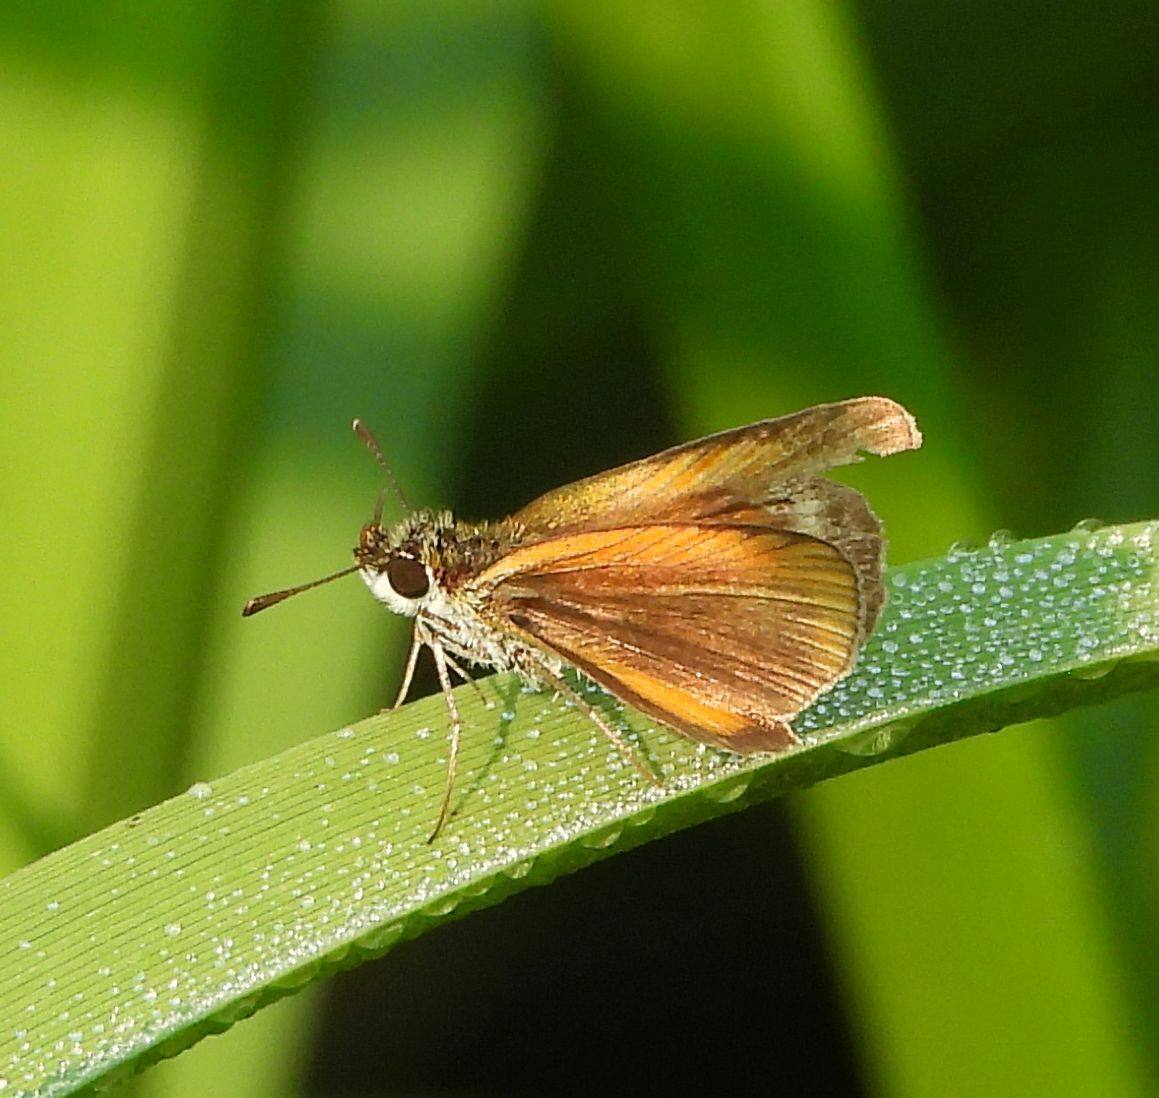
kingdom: Animalia
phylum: Arthropoda
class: Insecta
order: Lepidoptera
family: Hesperiidae
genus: Ancyloxypha
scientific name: Ancyloxypha numitor
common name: Least skipper
